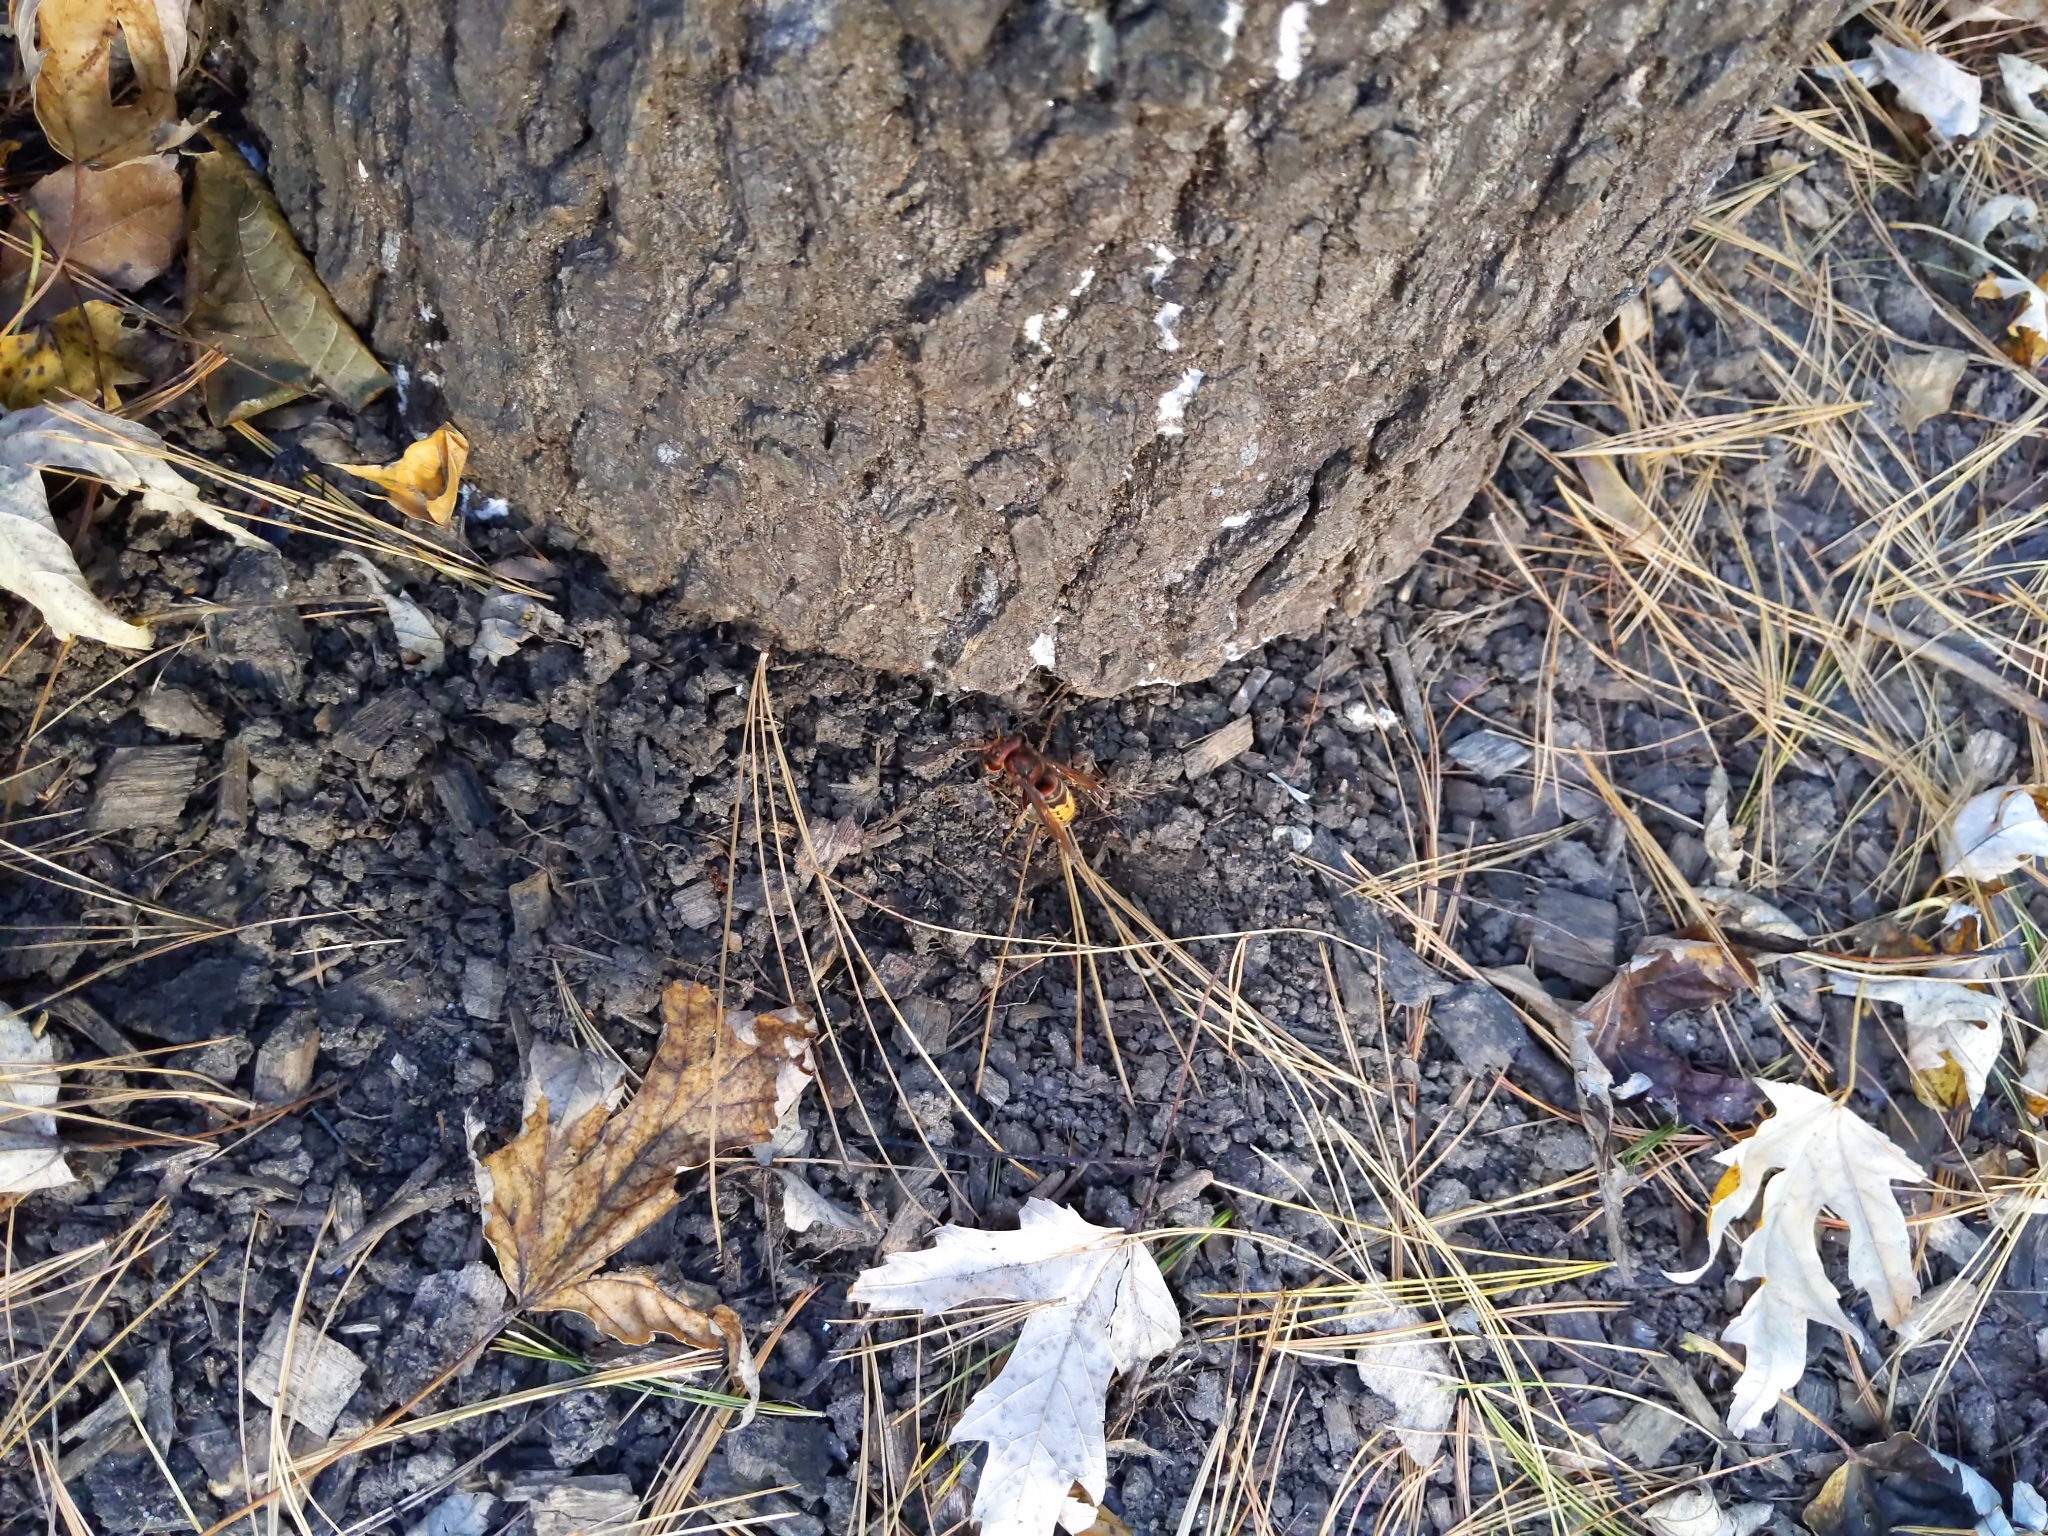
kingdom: Animalia
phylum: Arthropoda
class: Insecta
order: Hymenoptera
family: Vespidae
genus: Vespa
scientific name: Vespa crabro
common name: Hornet
